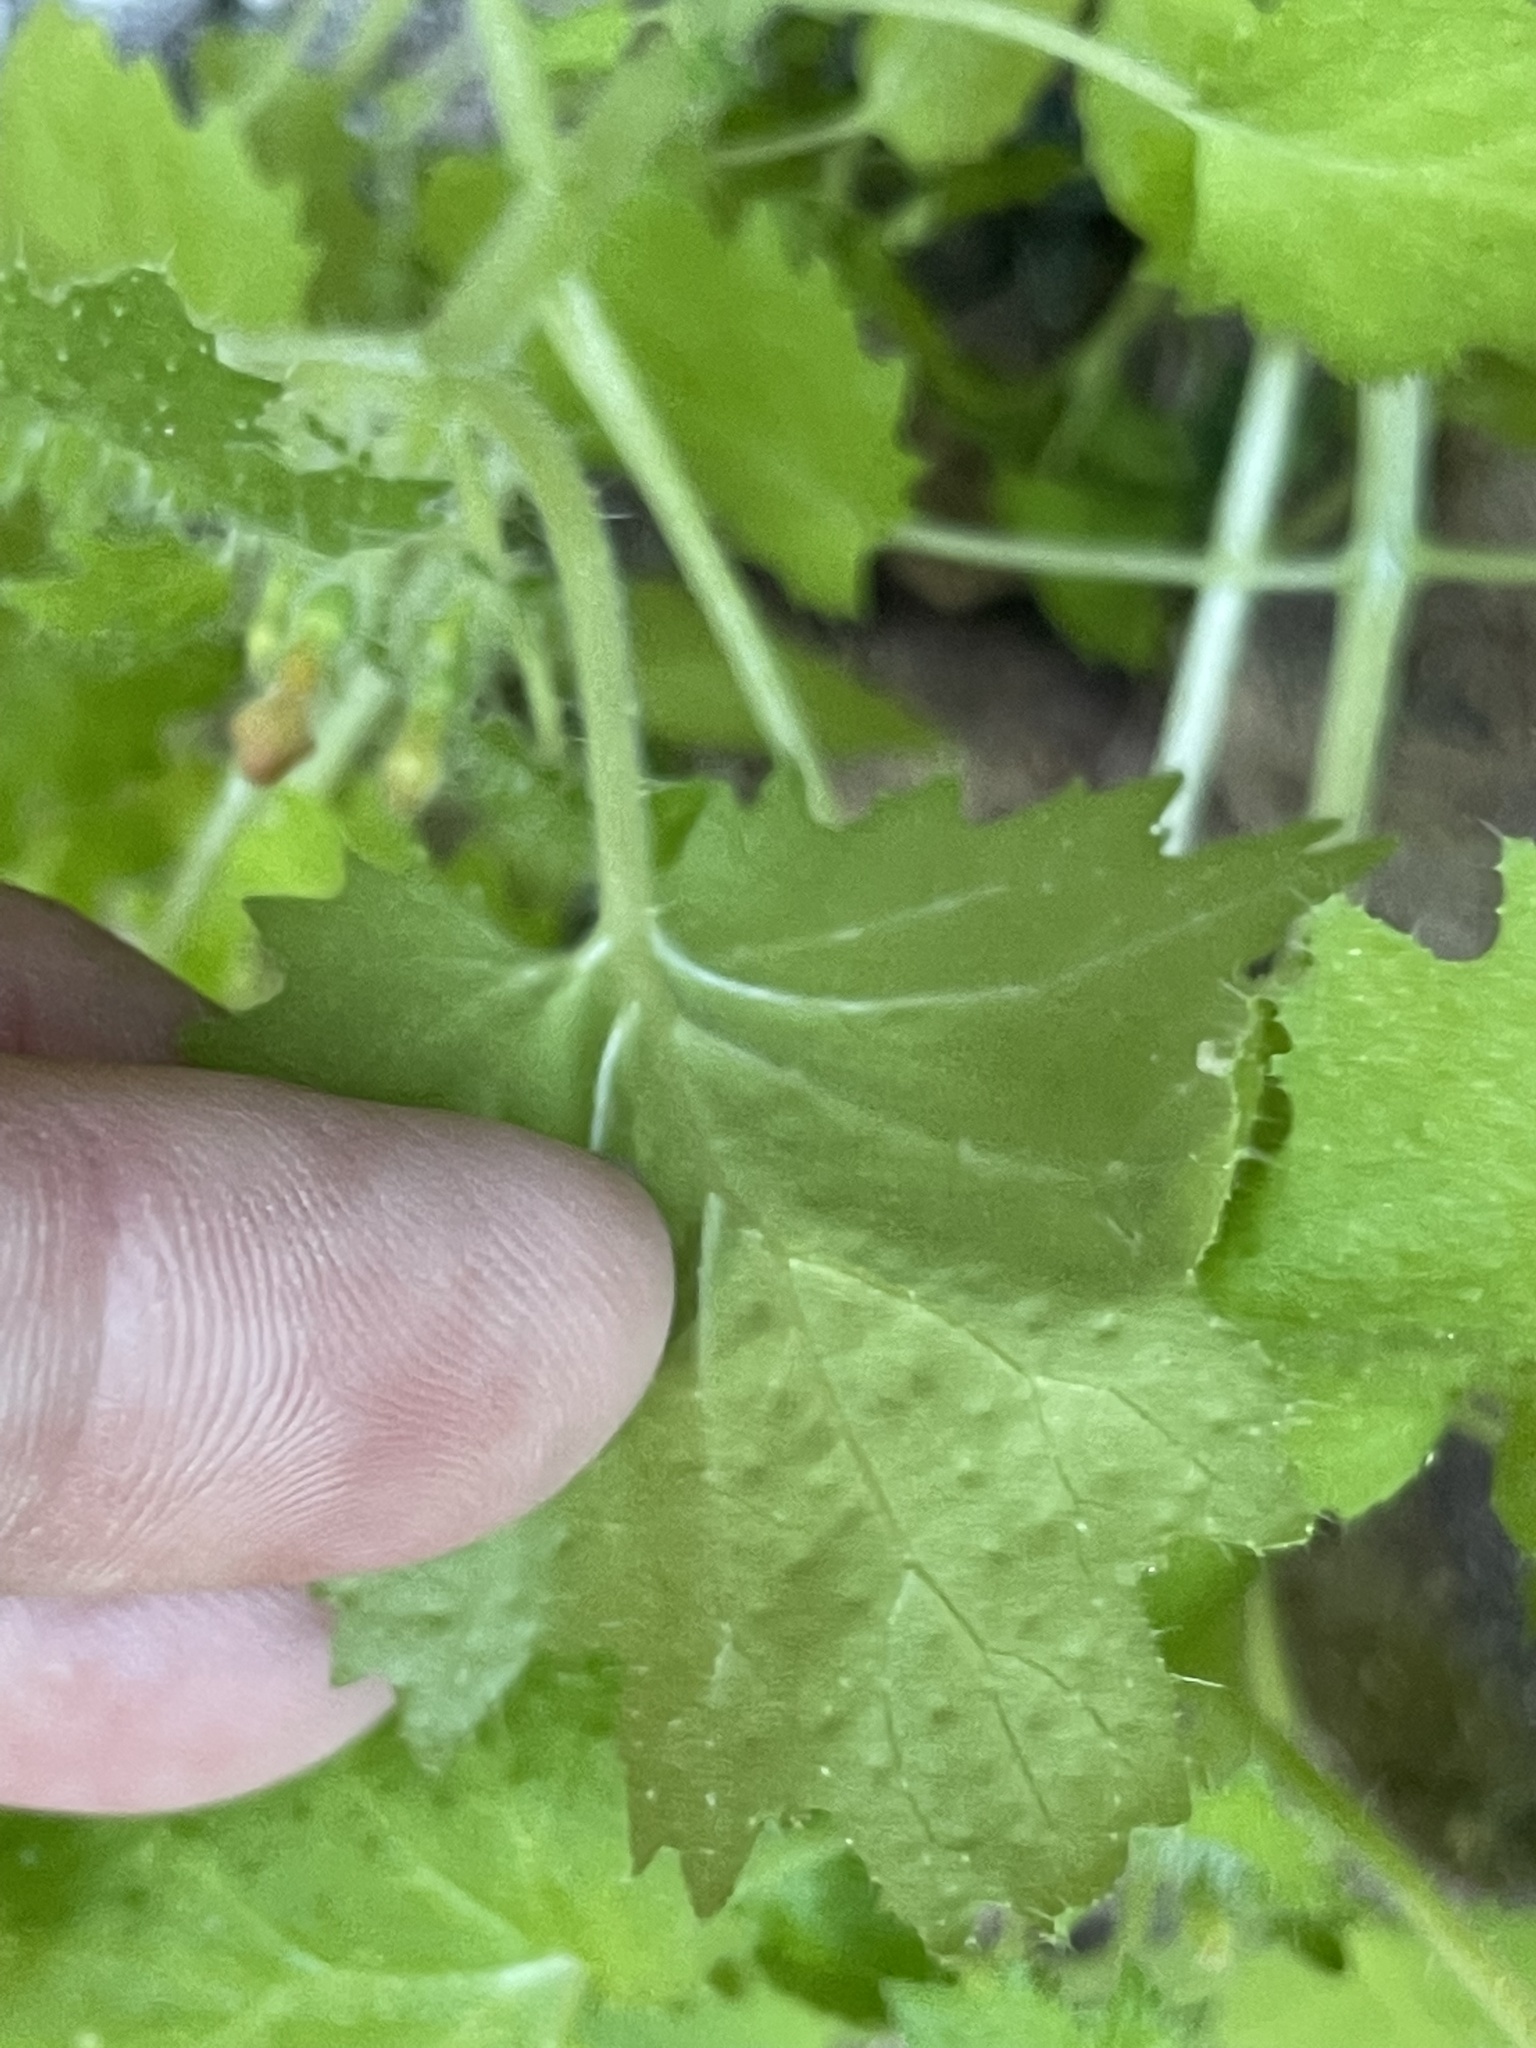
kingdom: Plantae
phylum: Tracheophyta
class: Magnoliopsida
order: Cornales
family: Loasaceae
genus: Eucnide
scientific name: Eucnide aurea
